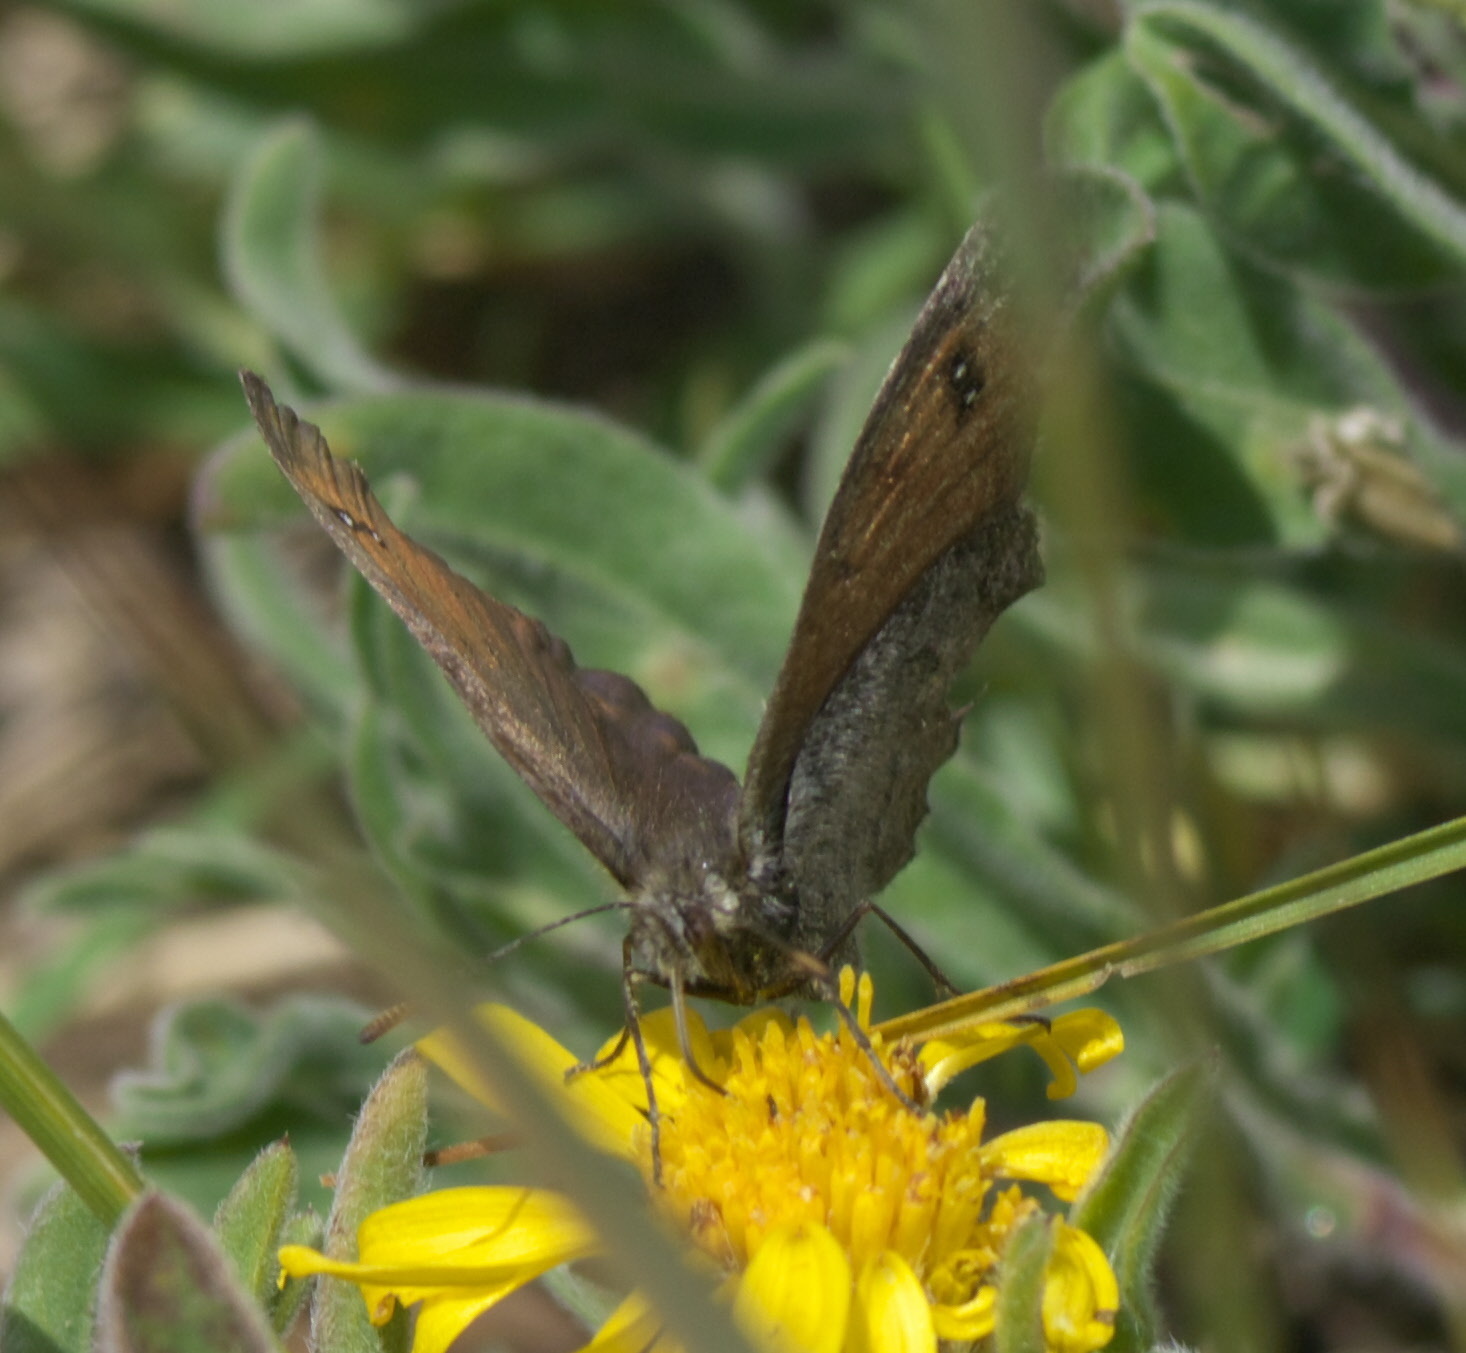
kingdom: Animalia
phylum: Arthropoda
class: Insecta
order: Lepidoptera
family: Nymphalidae
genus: Erebia
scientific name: Erebia tyndarus
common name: Swiss brassy ringlet
